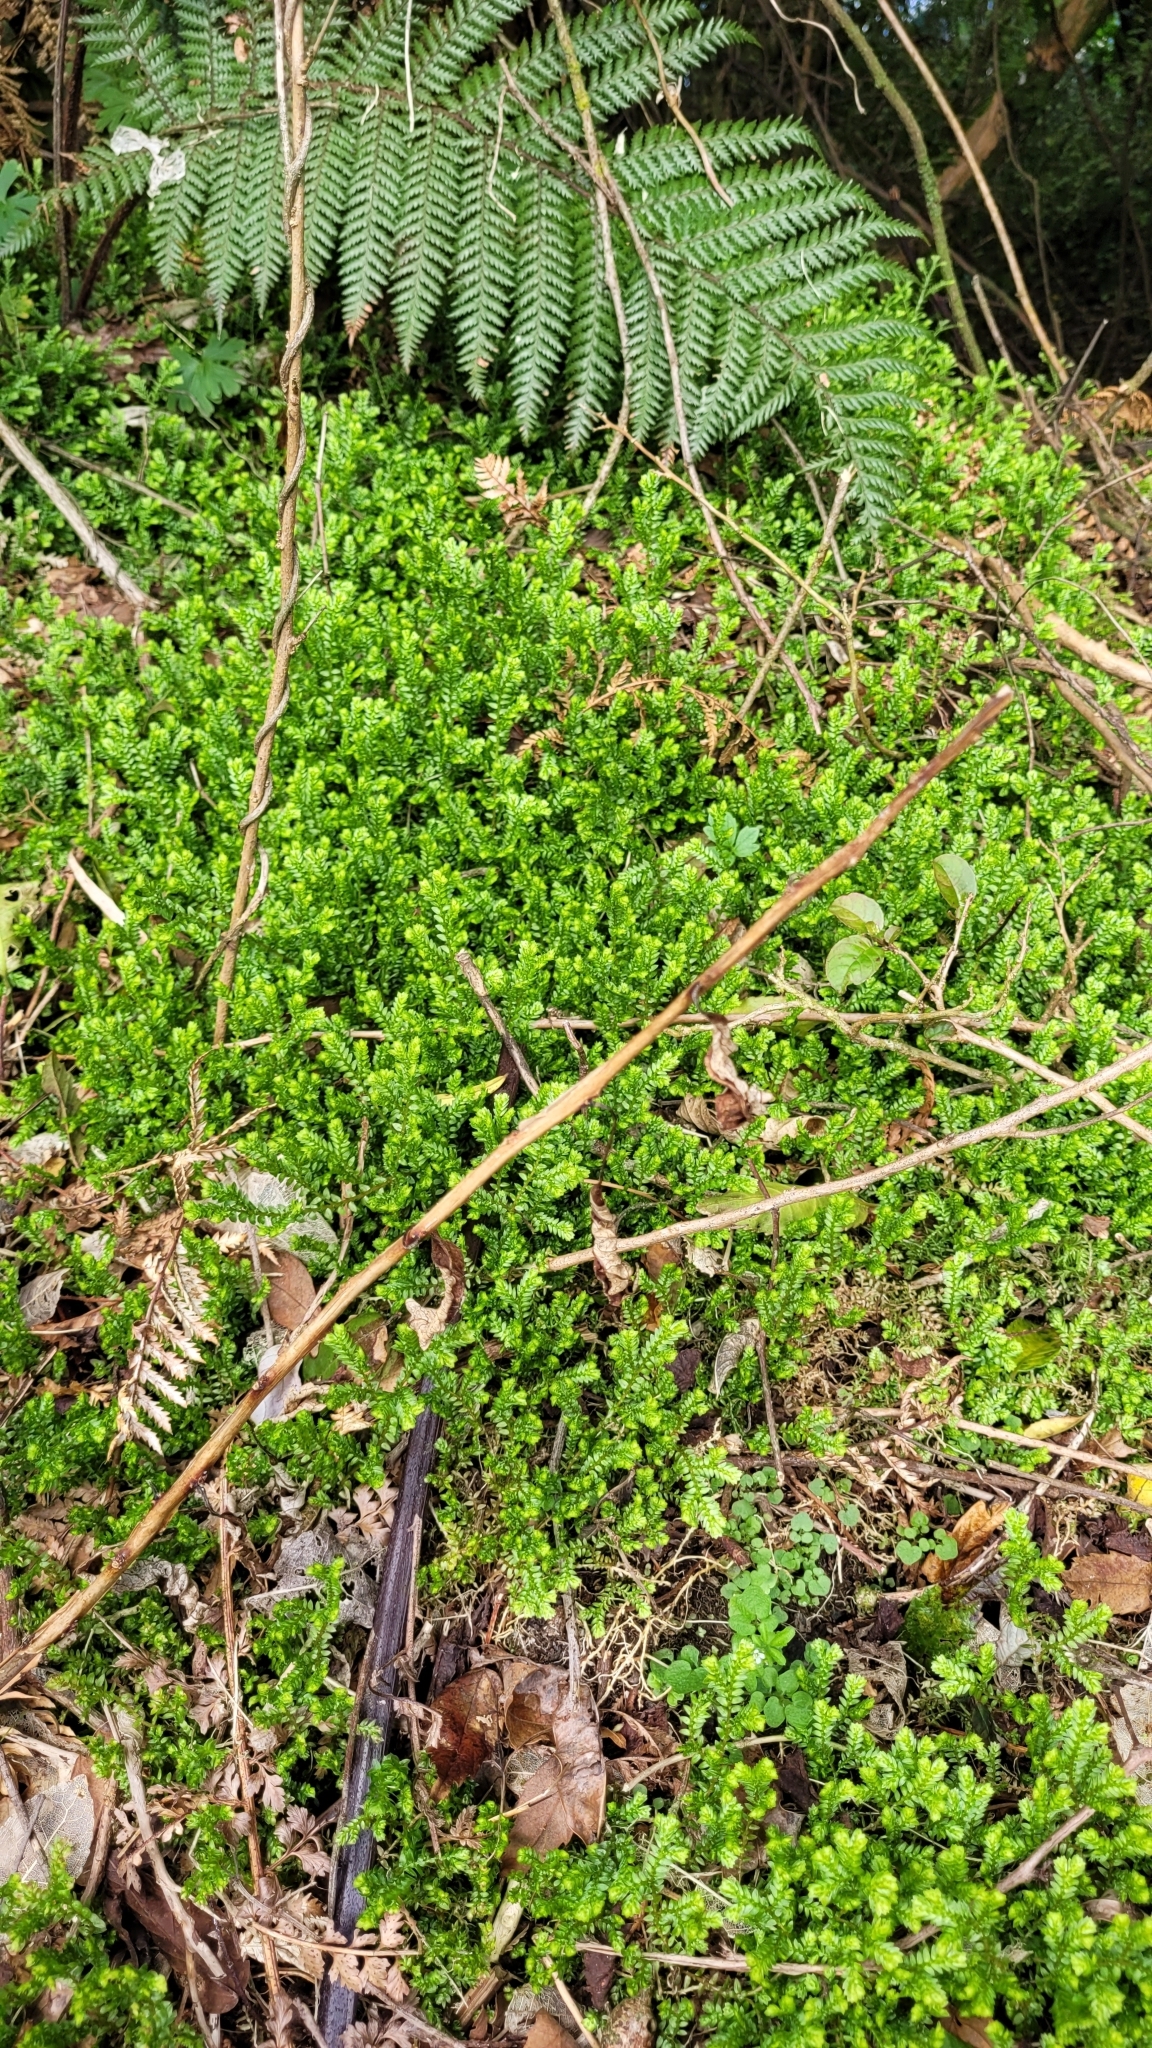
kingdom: Plantae
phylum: Tracheophyta
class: Lycopodiopsida
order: Selaginellales
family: Selaginellaceae
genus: Selaginella
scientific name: Selaginella kraussiana
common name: Krauss' spikemoss
